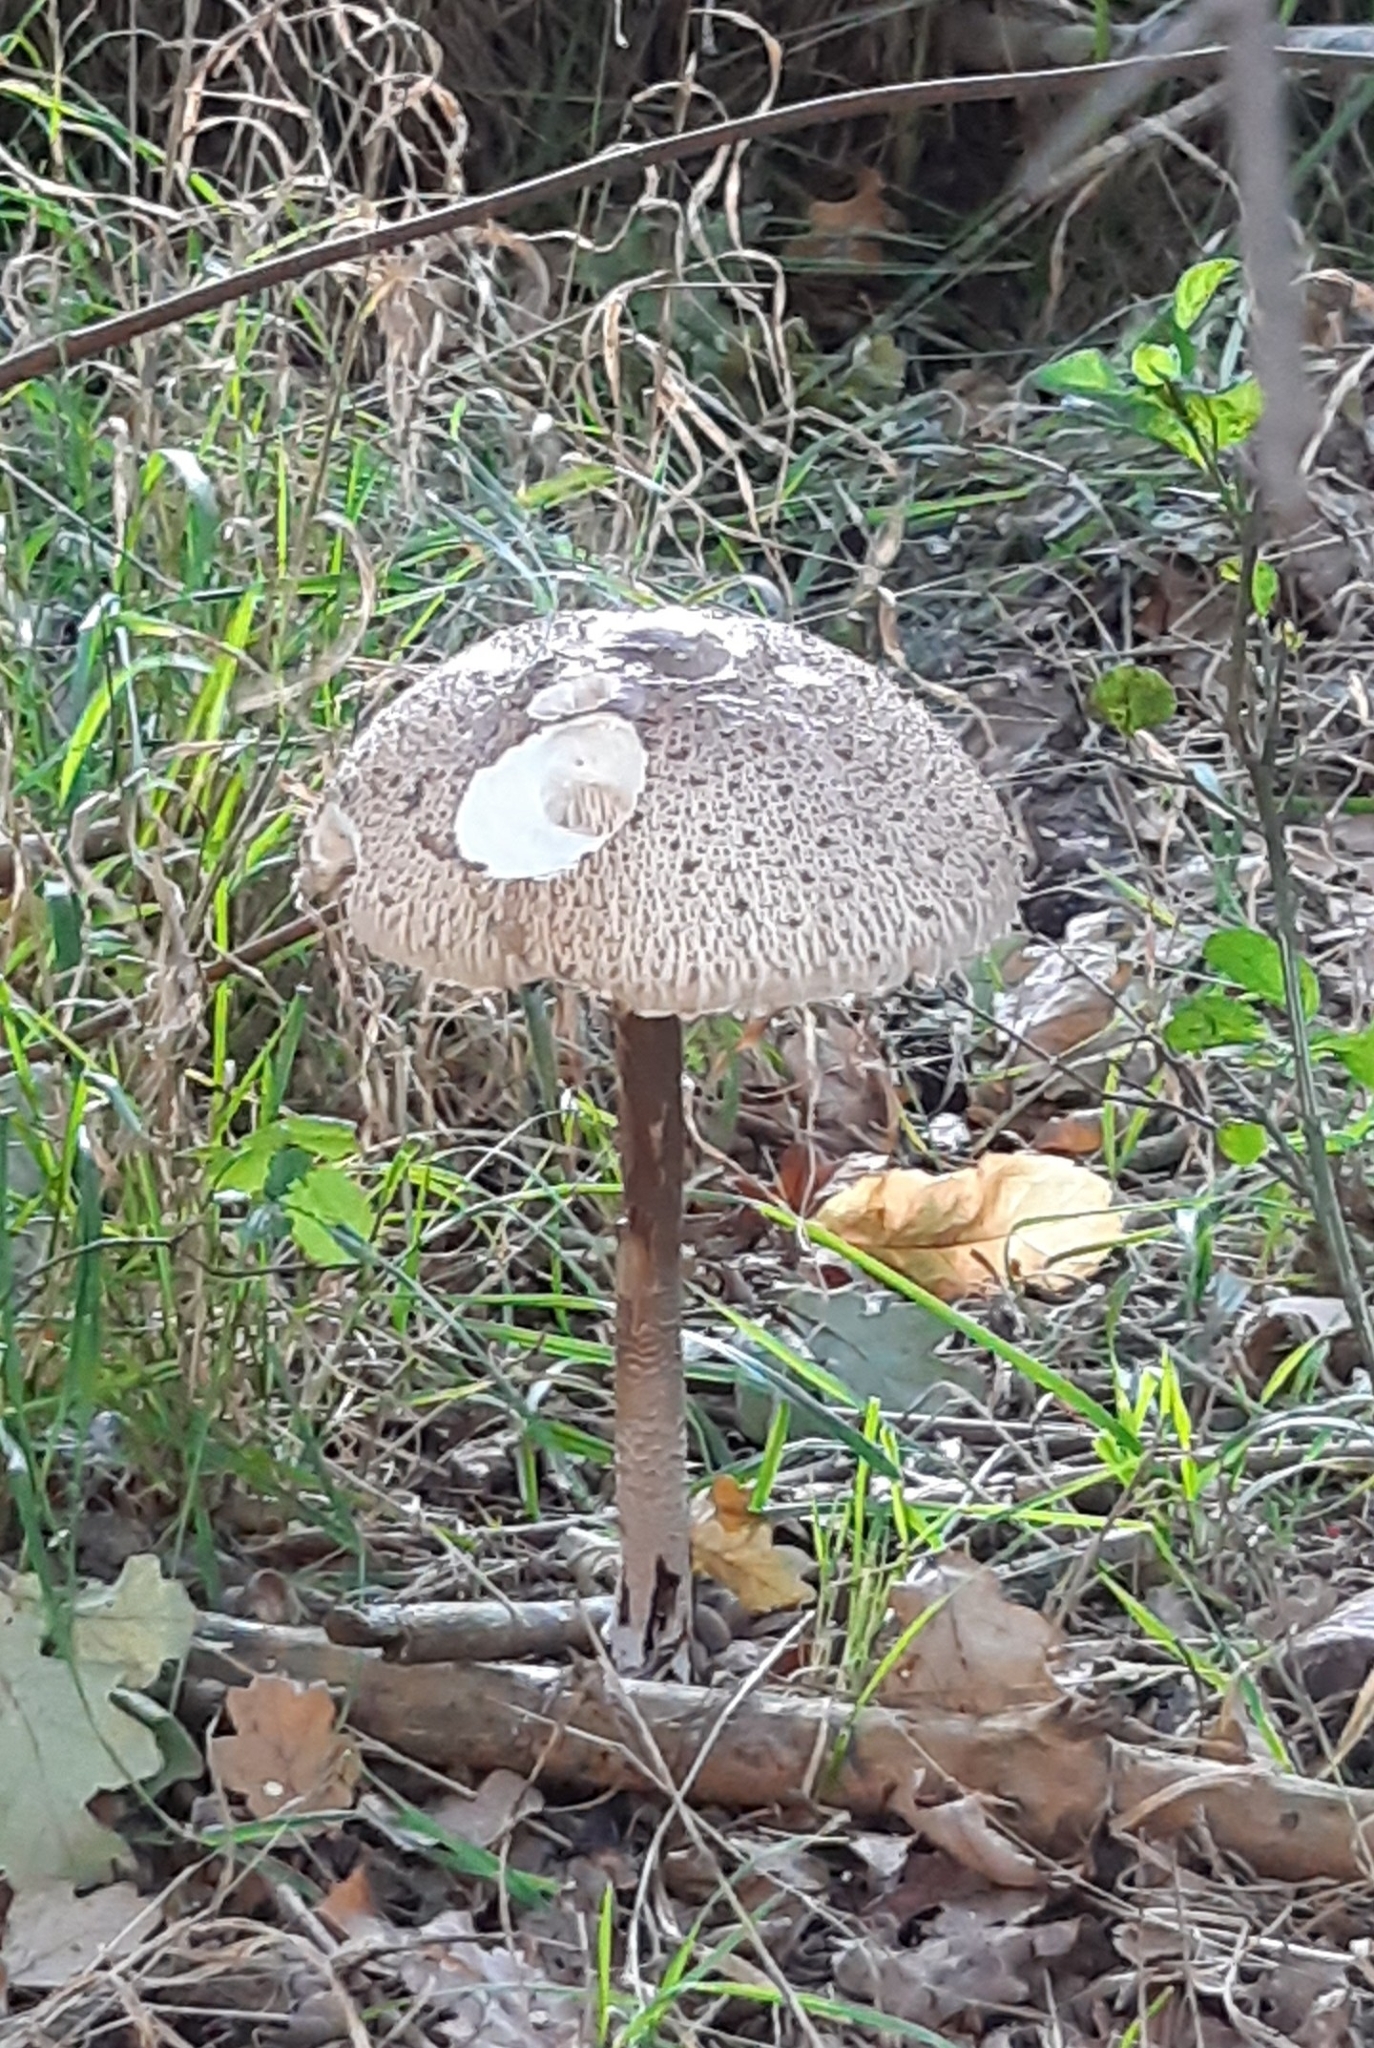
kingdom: Fungi
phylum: Basidiomycota
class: Agaricomycetes
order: Agaricales
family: Agaricaceae
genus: Macrolepiota
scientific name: Macrolepiota procera
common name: Parasol
